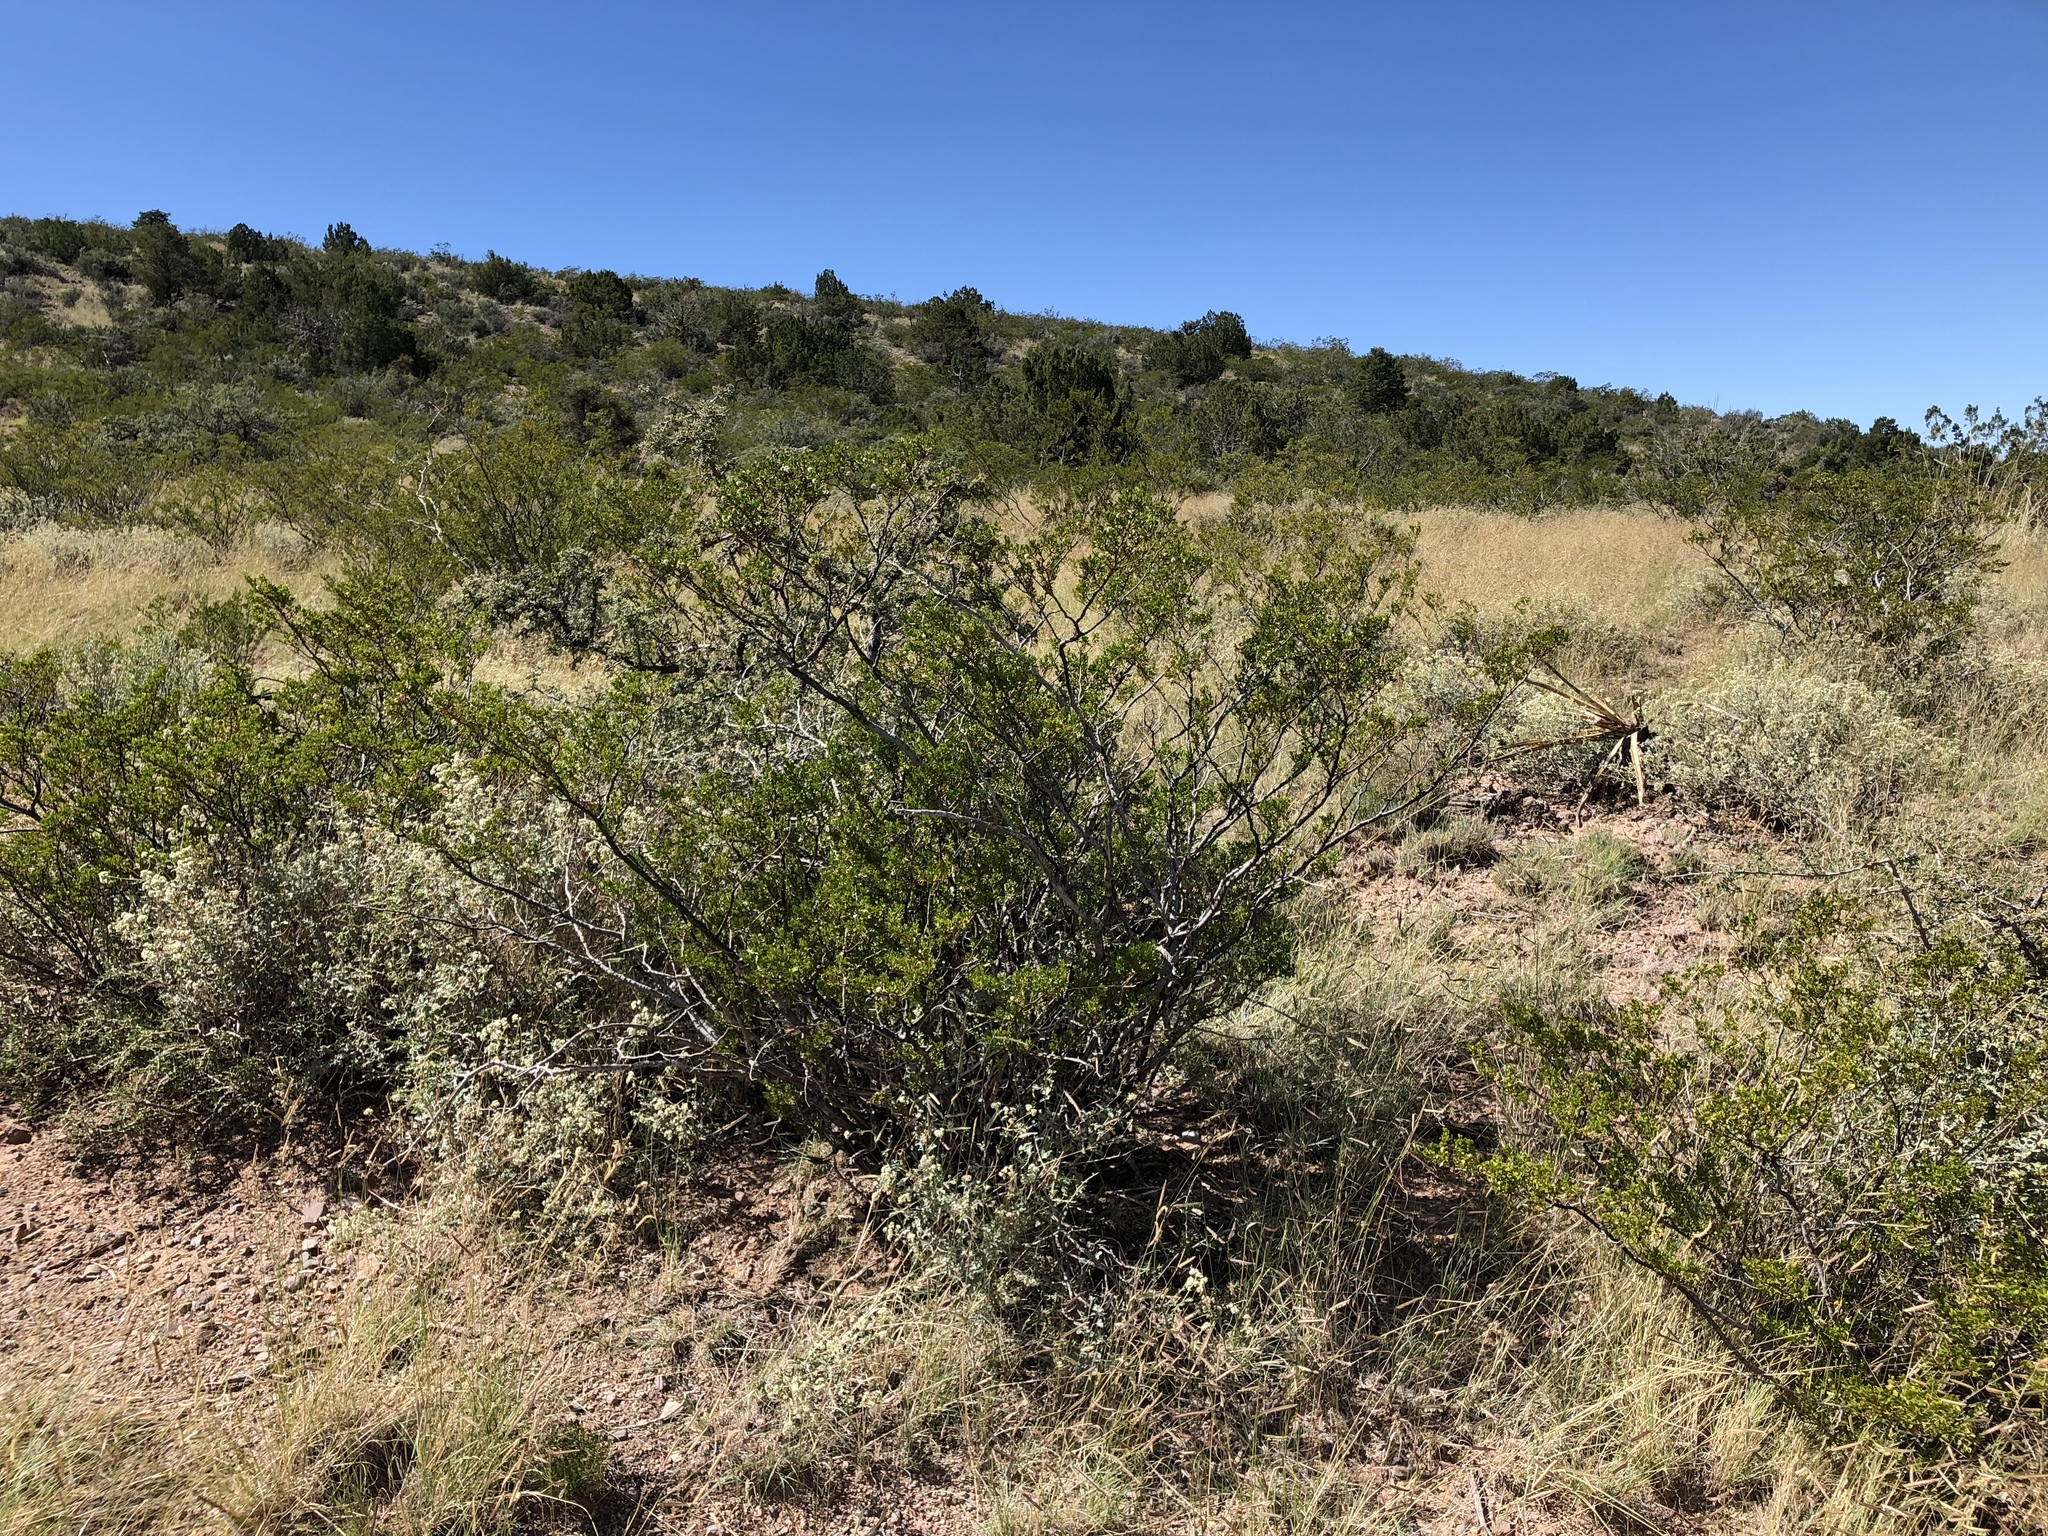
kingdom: Plantae
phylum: Tracheophyta
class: Magnoliopsida
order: Zygophyllales
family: Zygophyllaceae
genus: Larrea
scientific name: Larrea tridentata
